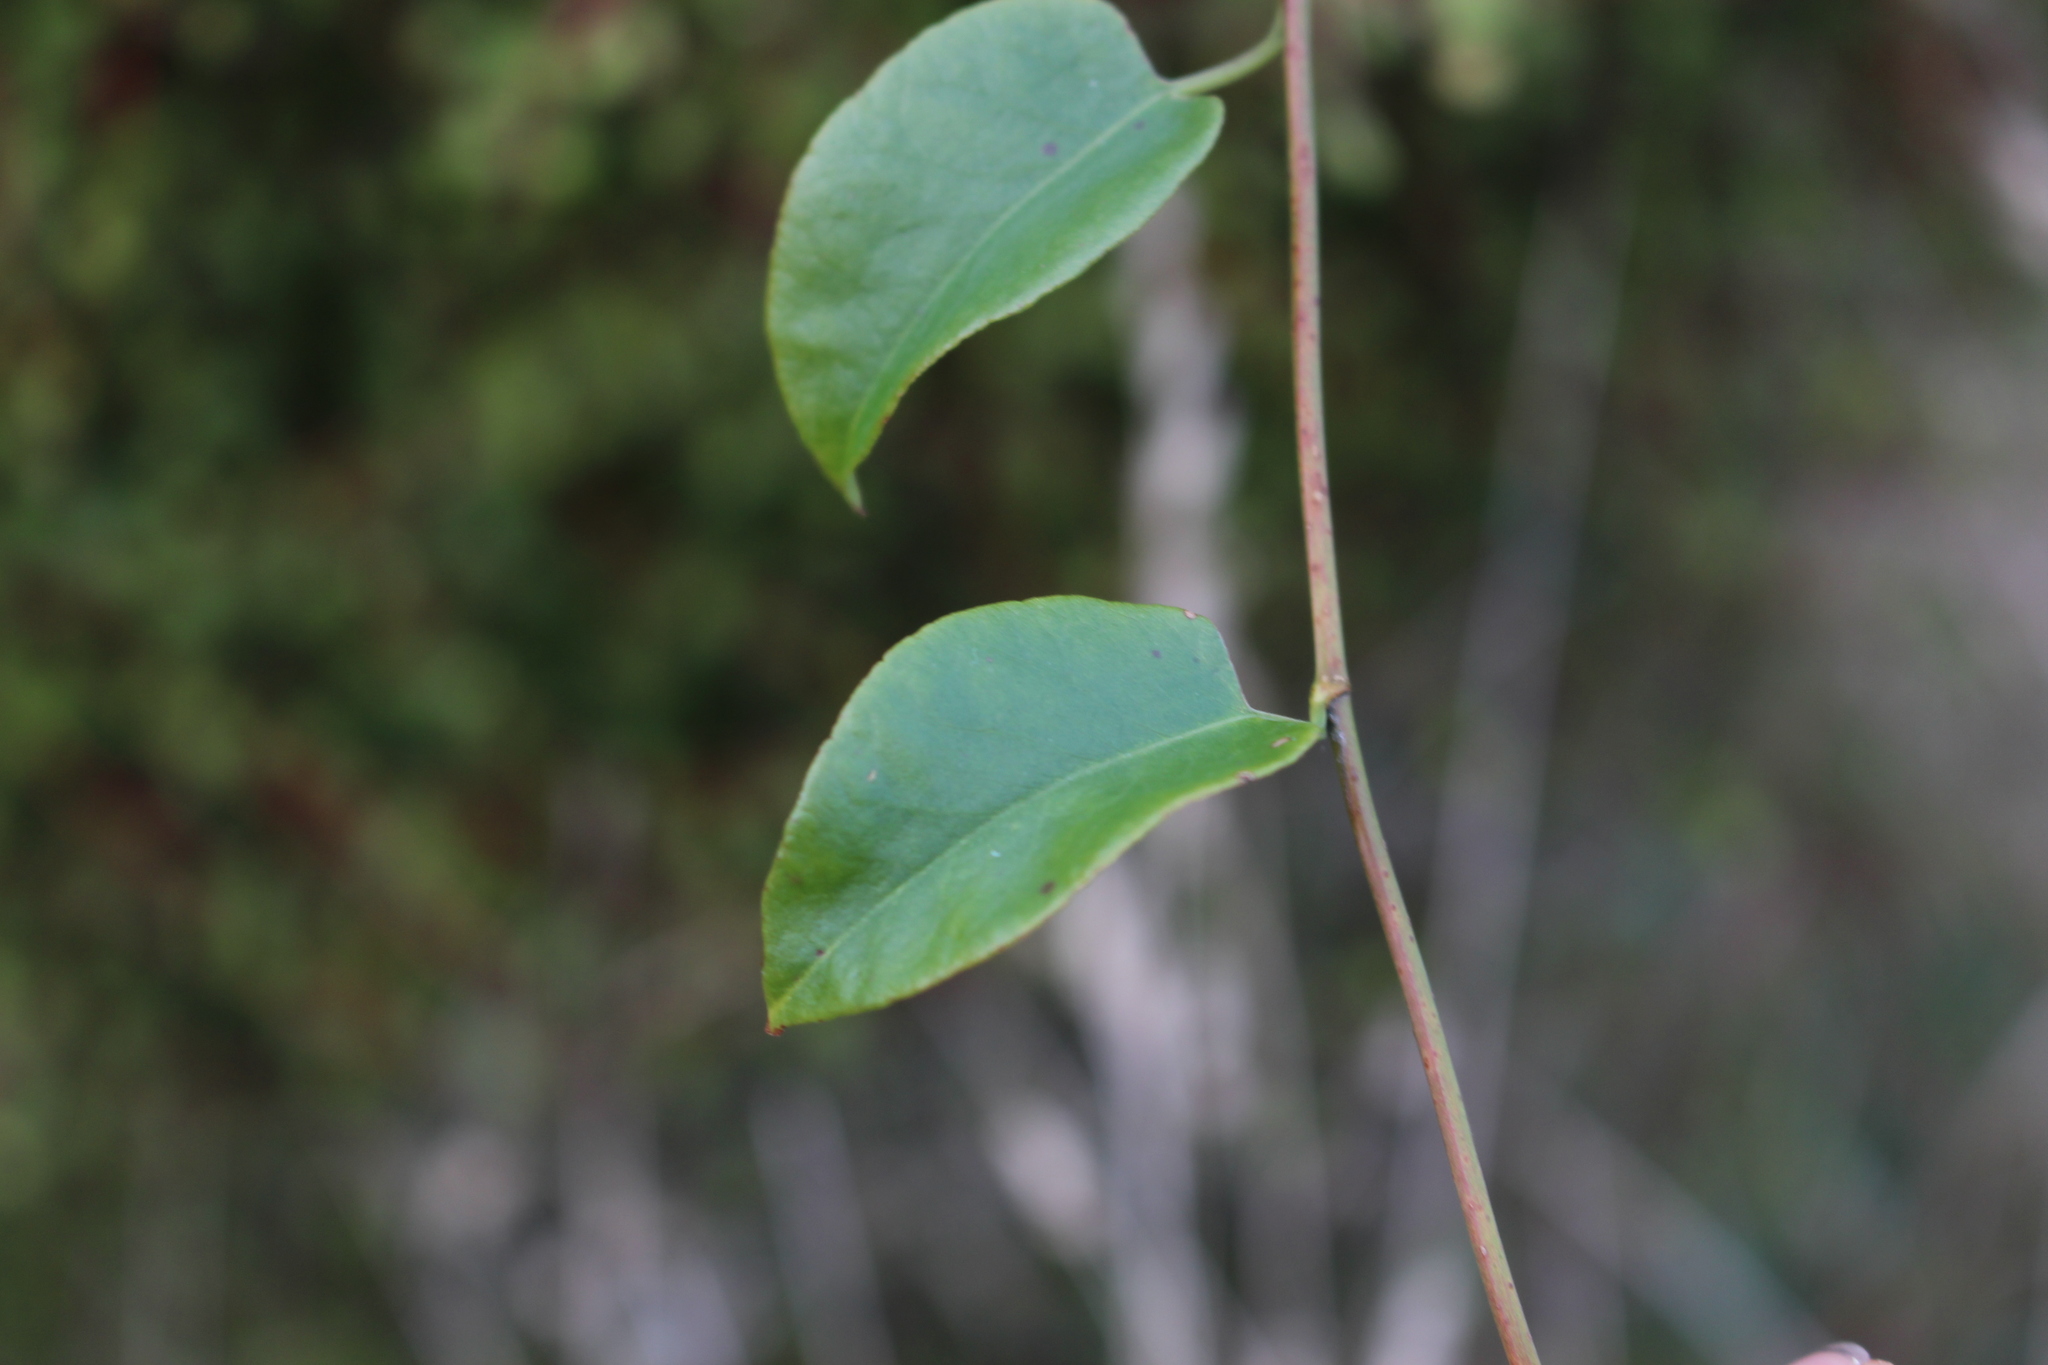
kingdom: Plantae
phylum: Tracheophyta
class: Magnoliopsida
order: Caryophyllales
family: Polygonaceae
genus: Muehlenbeckia
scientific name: Muehlenbeckia australis
